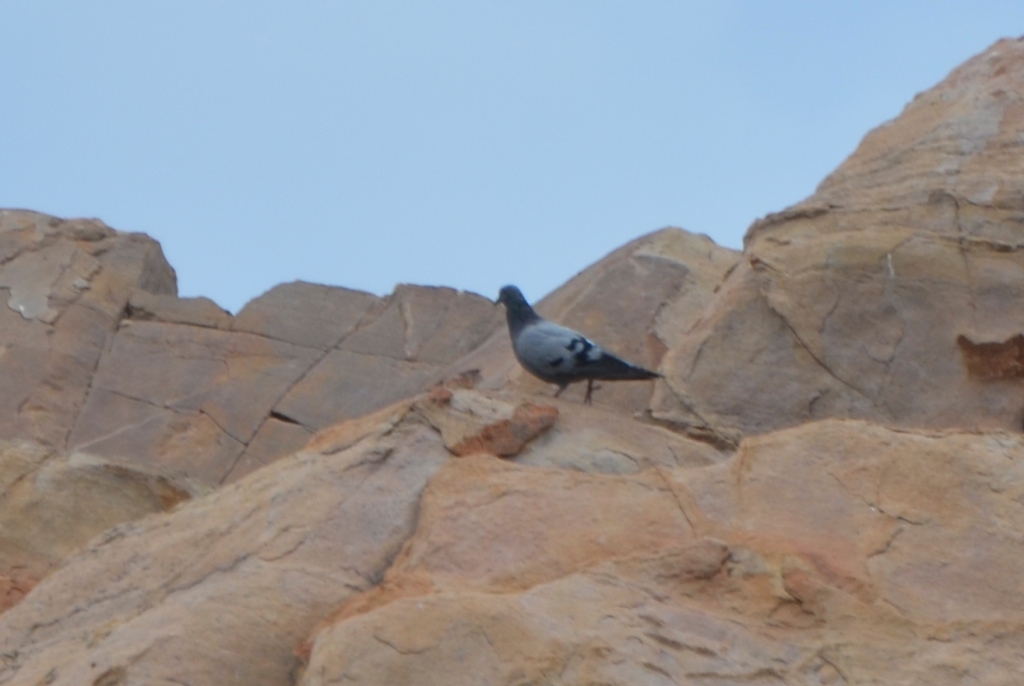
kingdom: Animalia
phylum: Chordata
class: Aves
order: Columbiformes
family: Columbidae
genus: Columba
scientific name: Columba livia
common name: Rock pigeon
